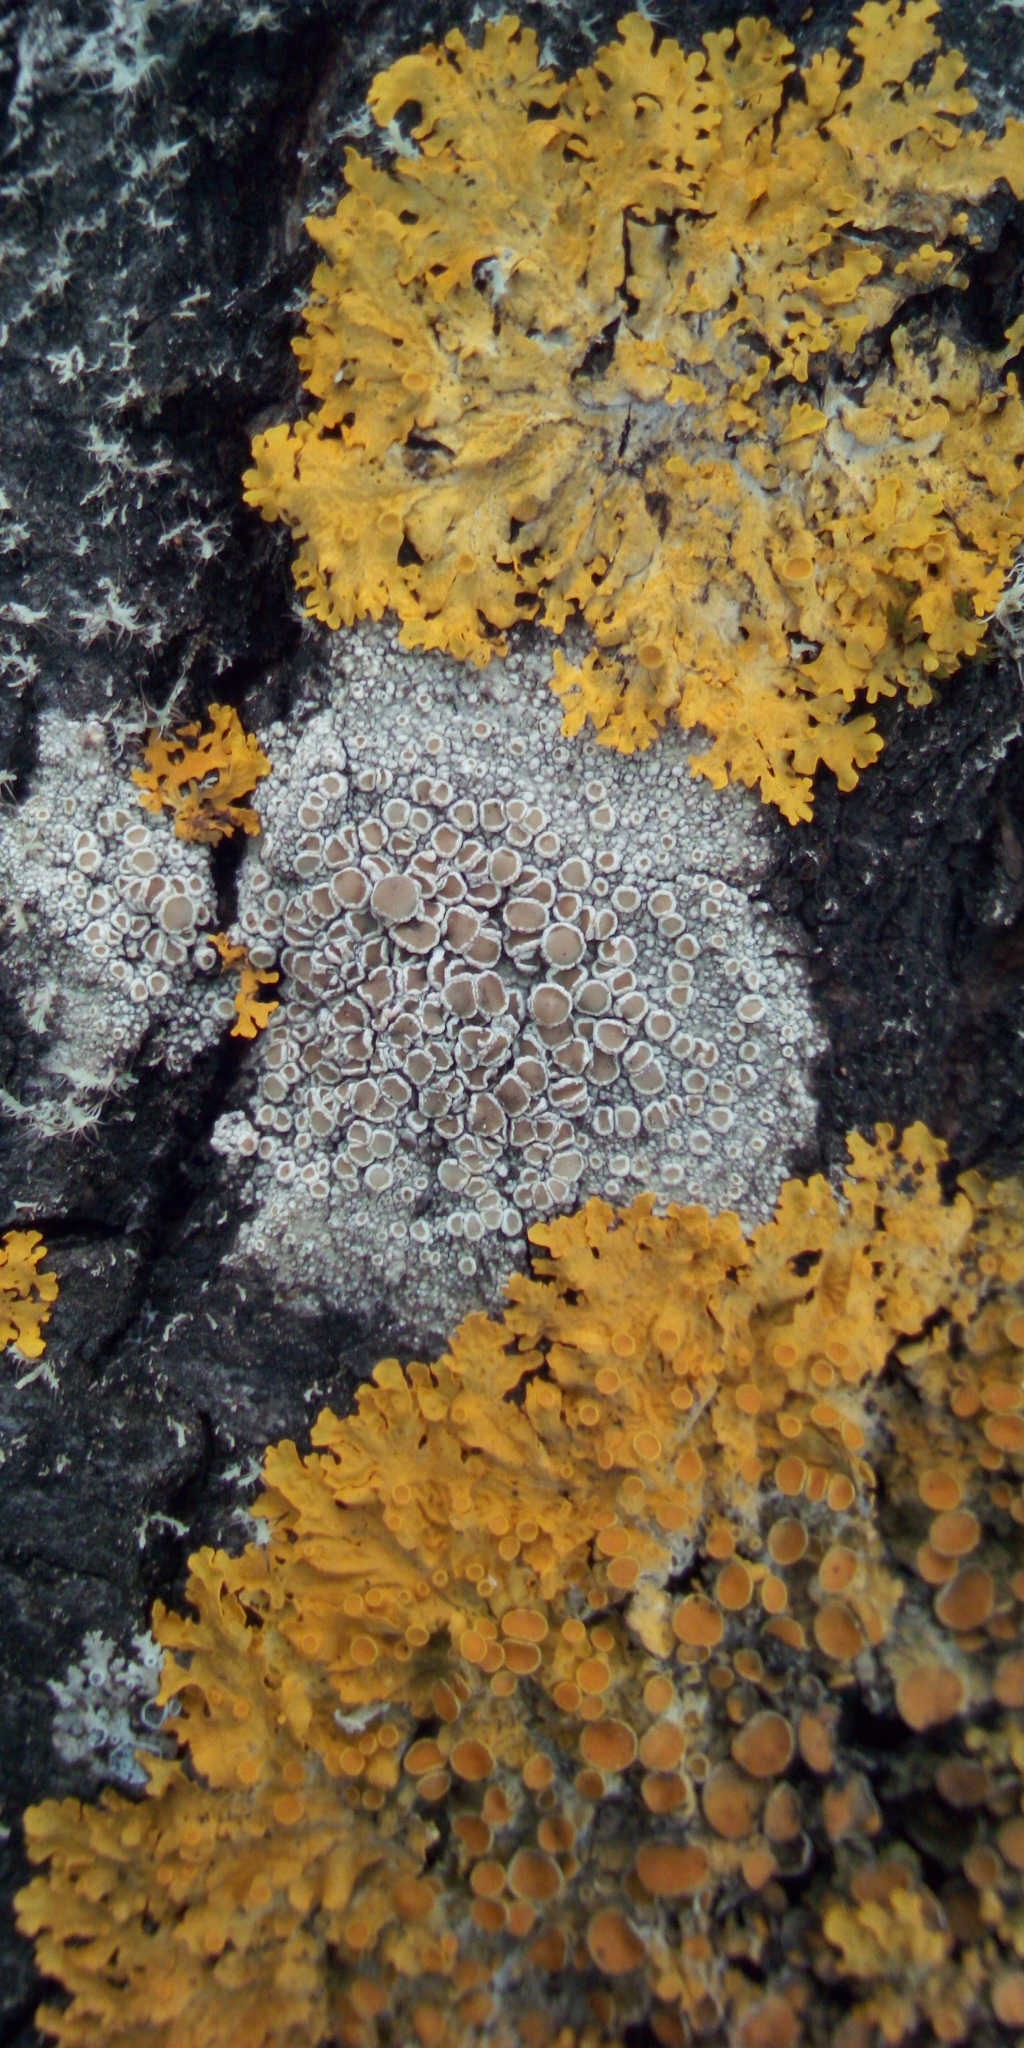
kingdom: Fungi
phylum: Ascomycota
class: Lecanoromycetes
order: Lecanorales
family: Lecanoraceae
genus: Lecanora
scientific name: Lecanora
